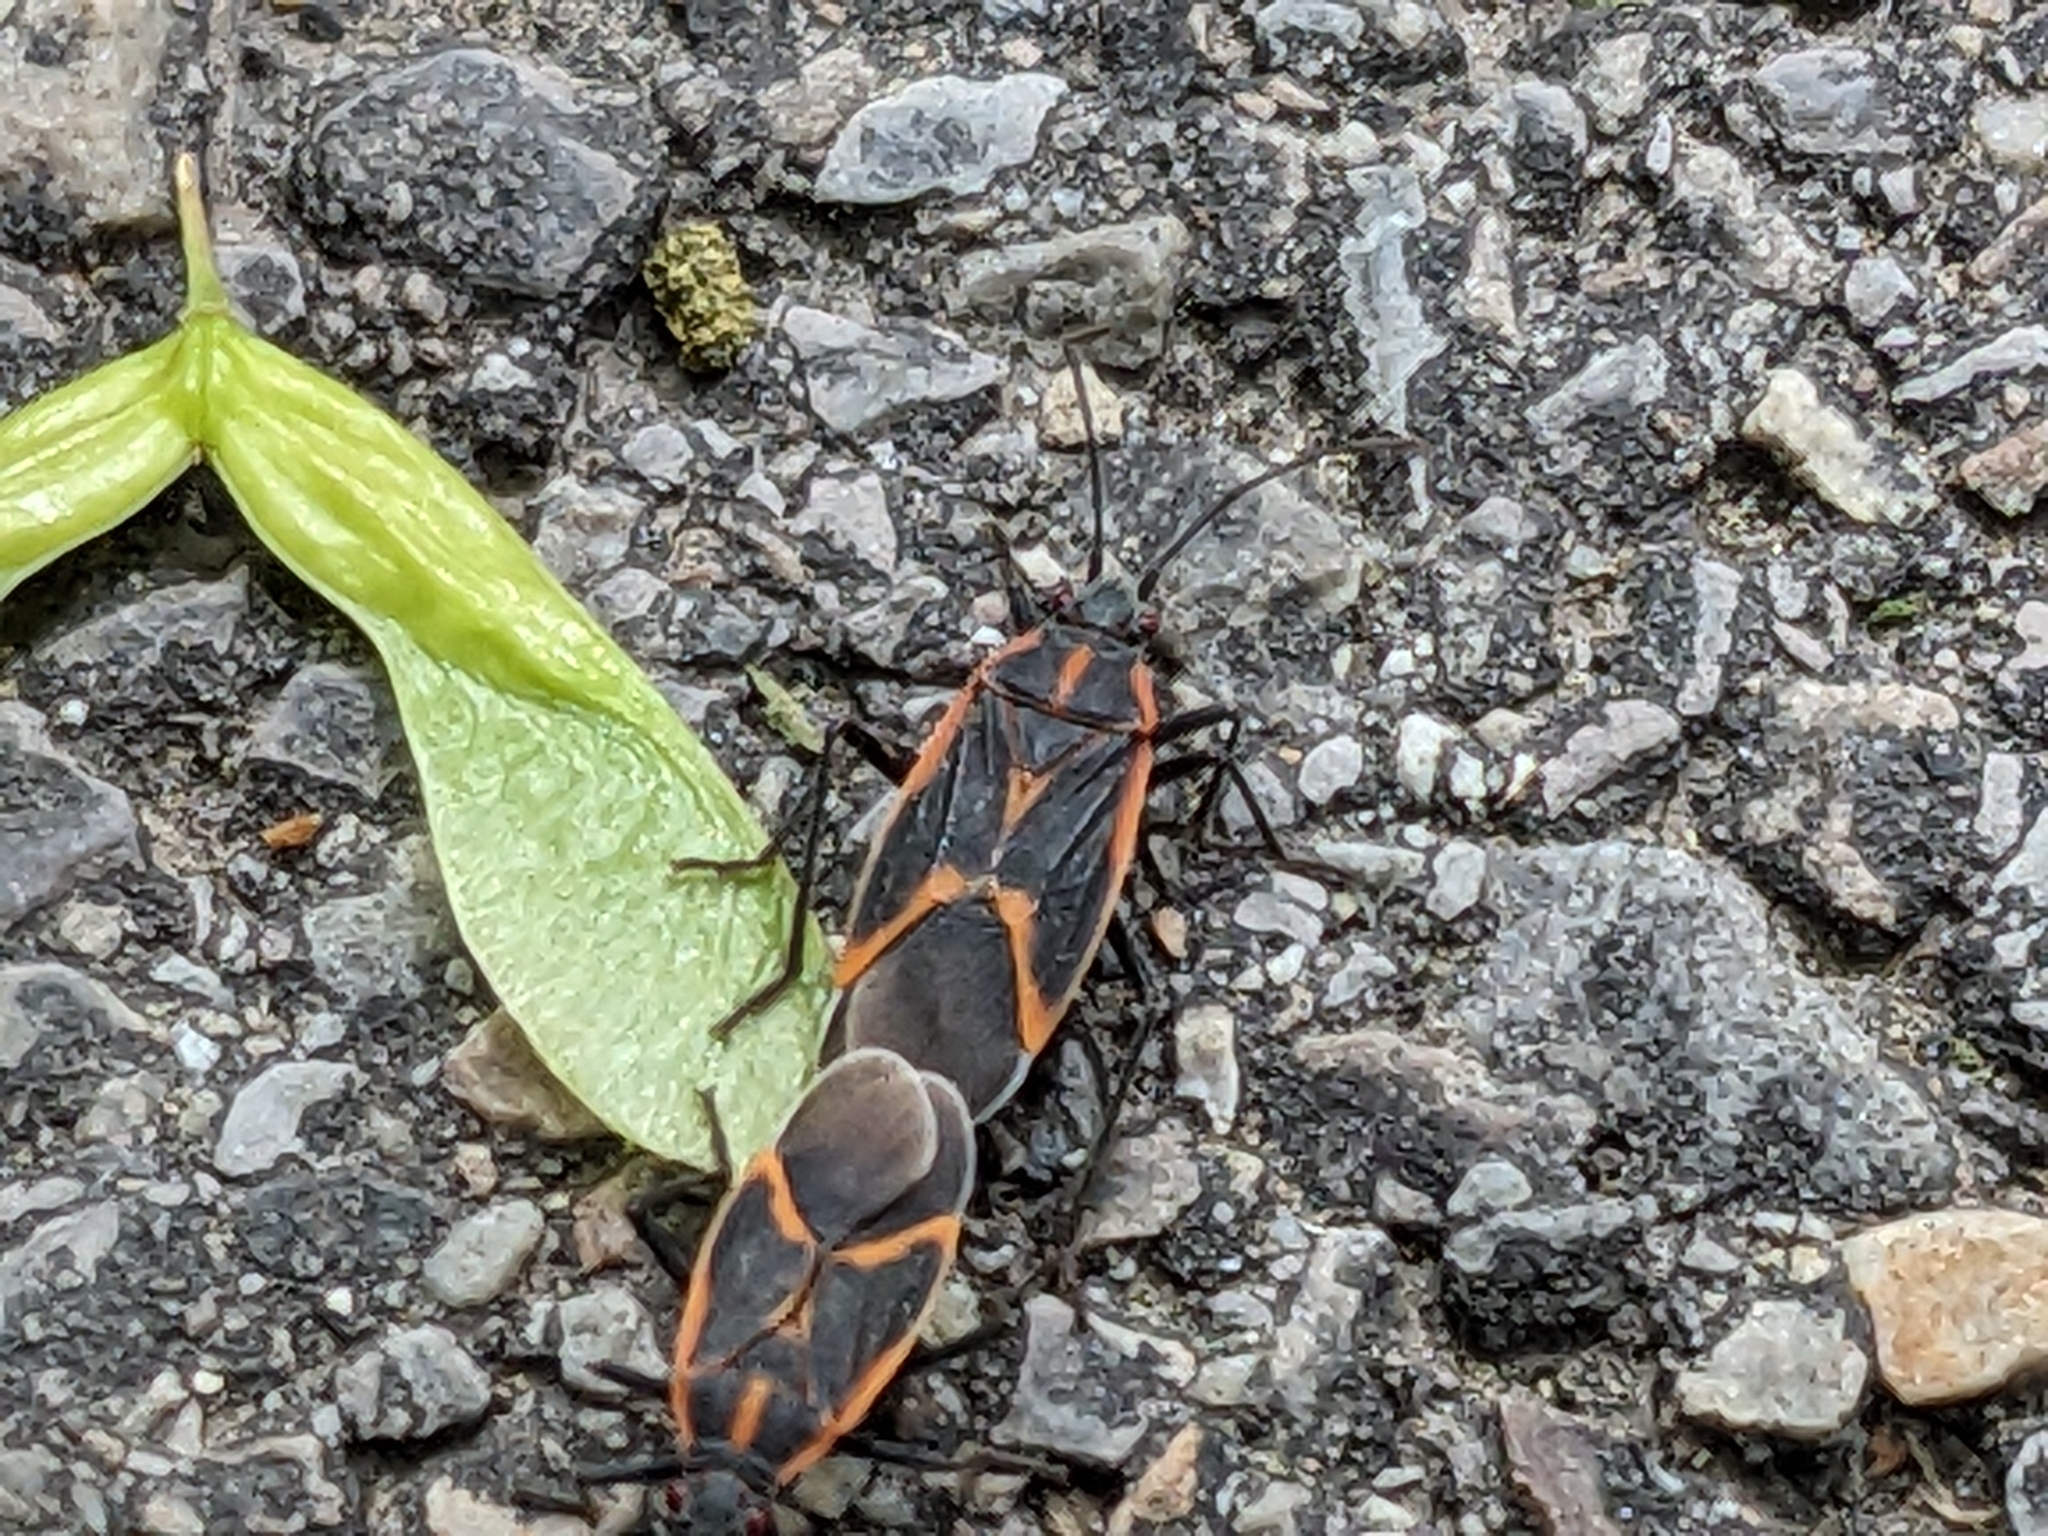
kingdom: Animalia
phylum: Arthropoda
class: Insecta
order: Hemiptera
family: Rhopalidae
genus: Boisea
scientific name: Boisea trivittata
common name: Boxelder bug
